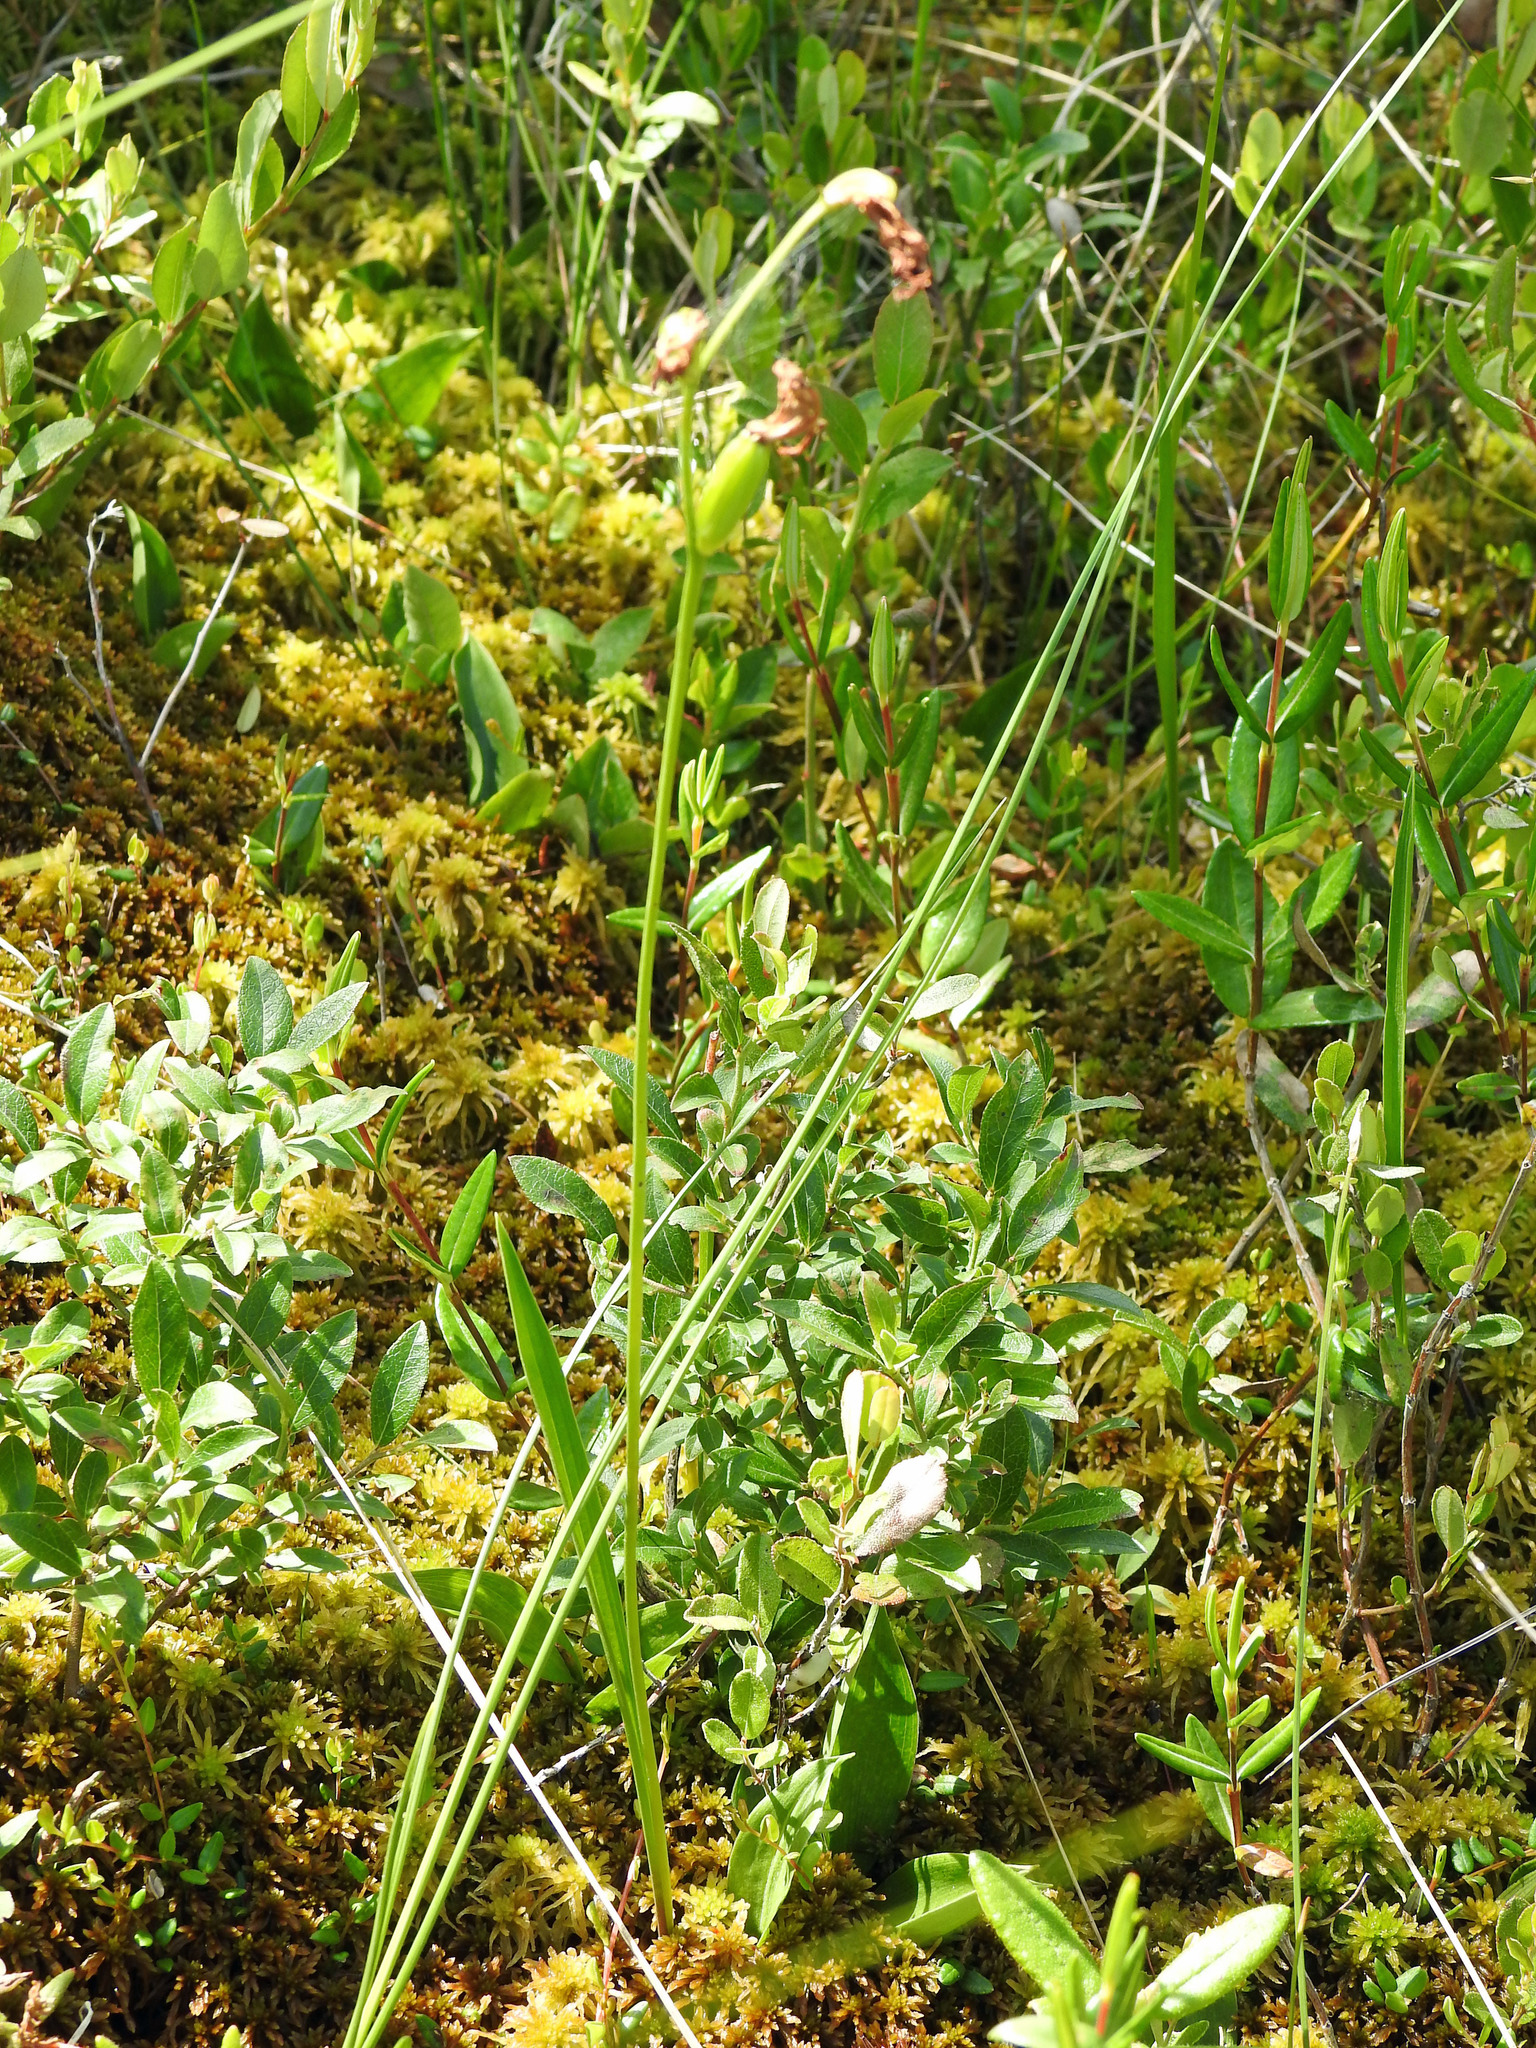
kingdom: Plantae
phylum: Tracheophyta
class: Liliopsida
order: Asparagales
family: Orchidaceae
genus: Calopogon
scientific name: Calopogon tuberosus
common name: Grass-pink
